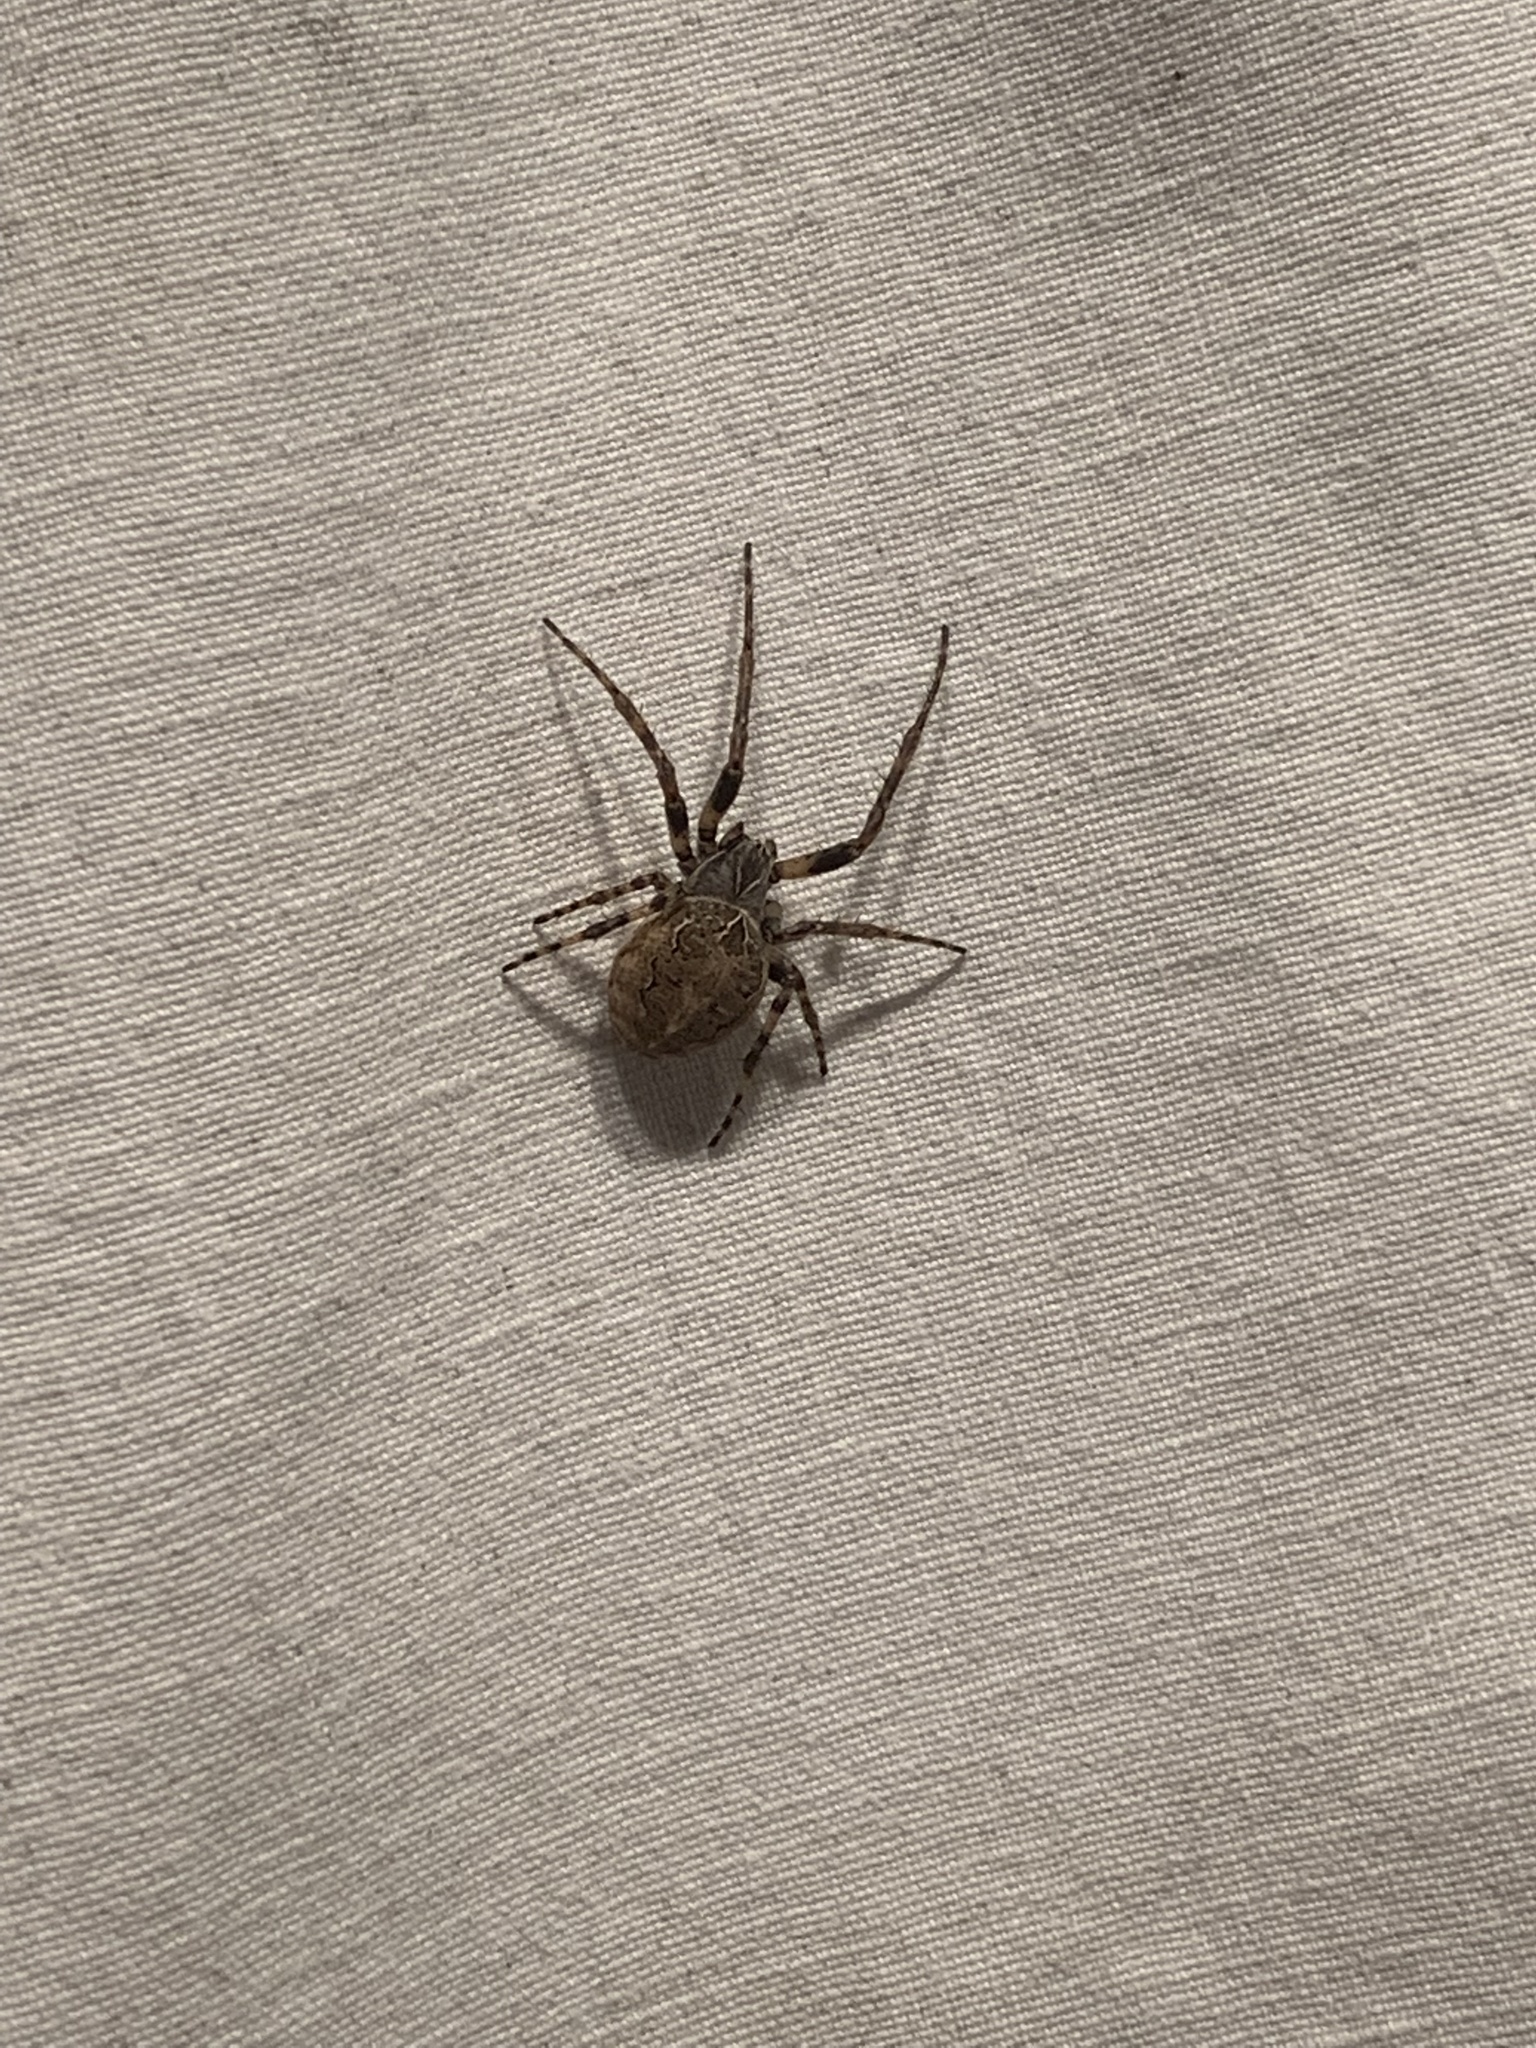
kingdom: Animalia
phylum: Arthropoda
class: Arachnida
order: Araneae
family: Araneidae
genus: Larinioides
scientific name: Larinioides sclopetarius
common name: Bridge orbweaver
